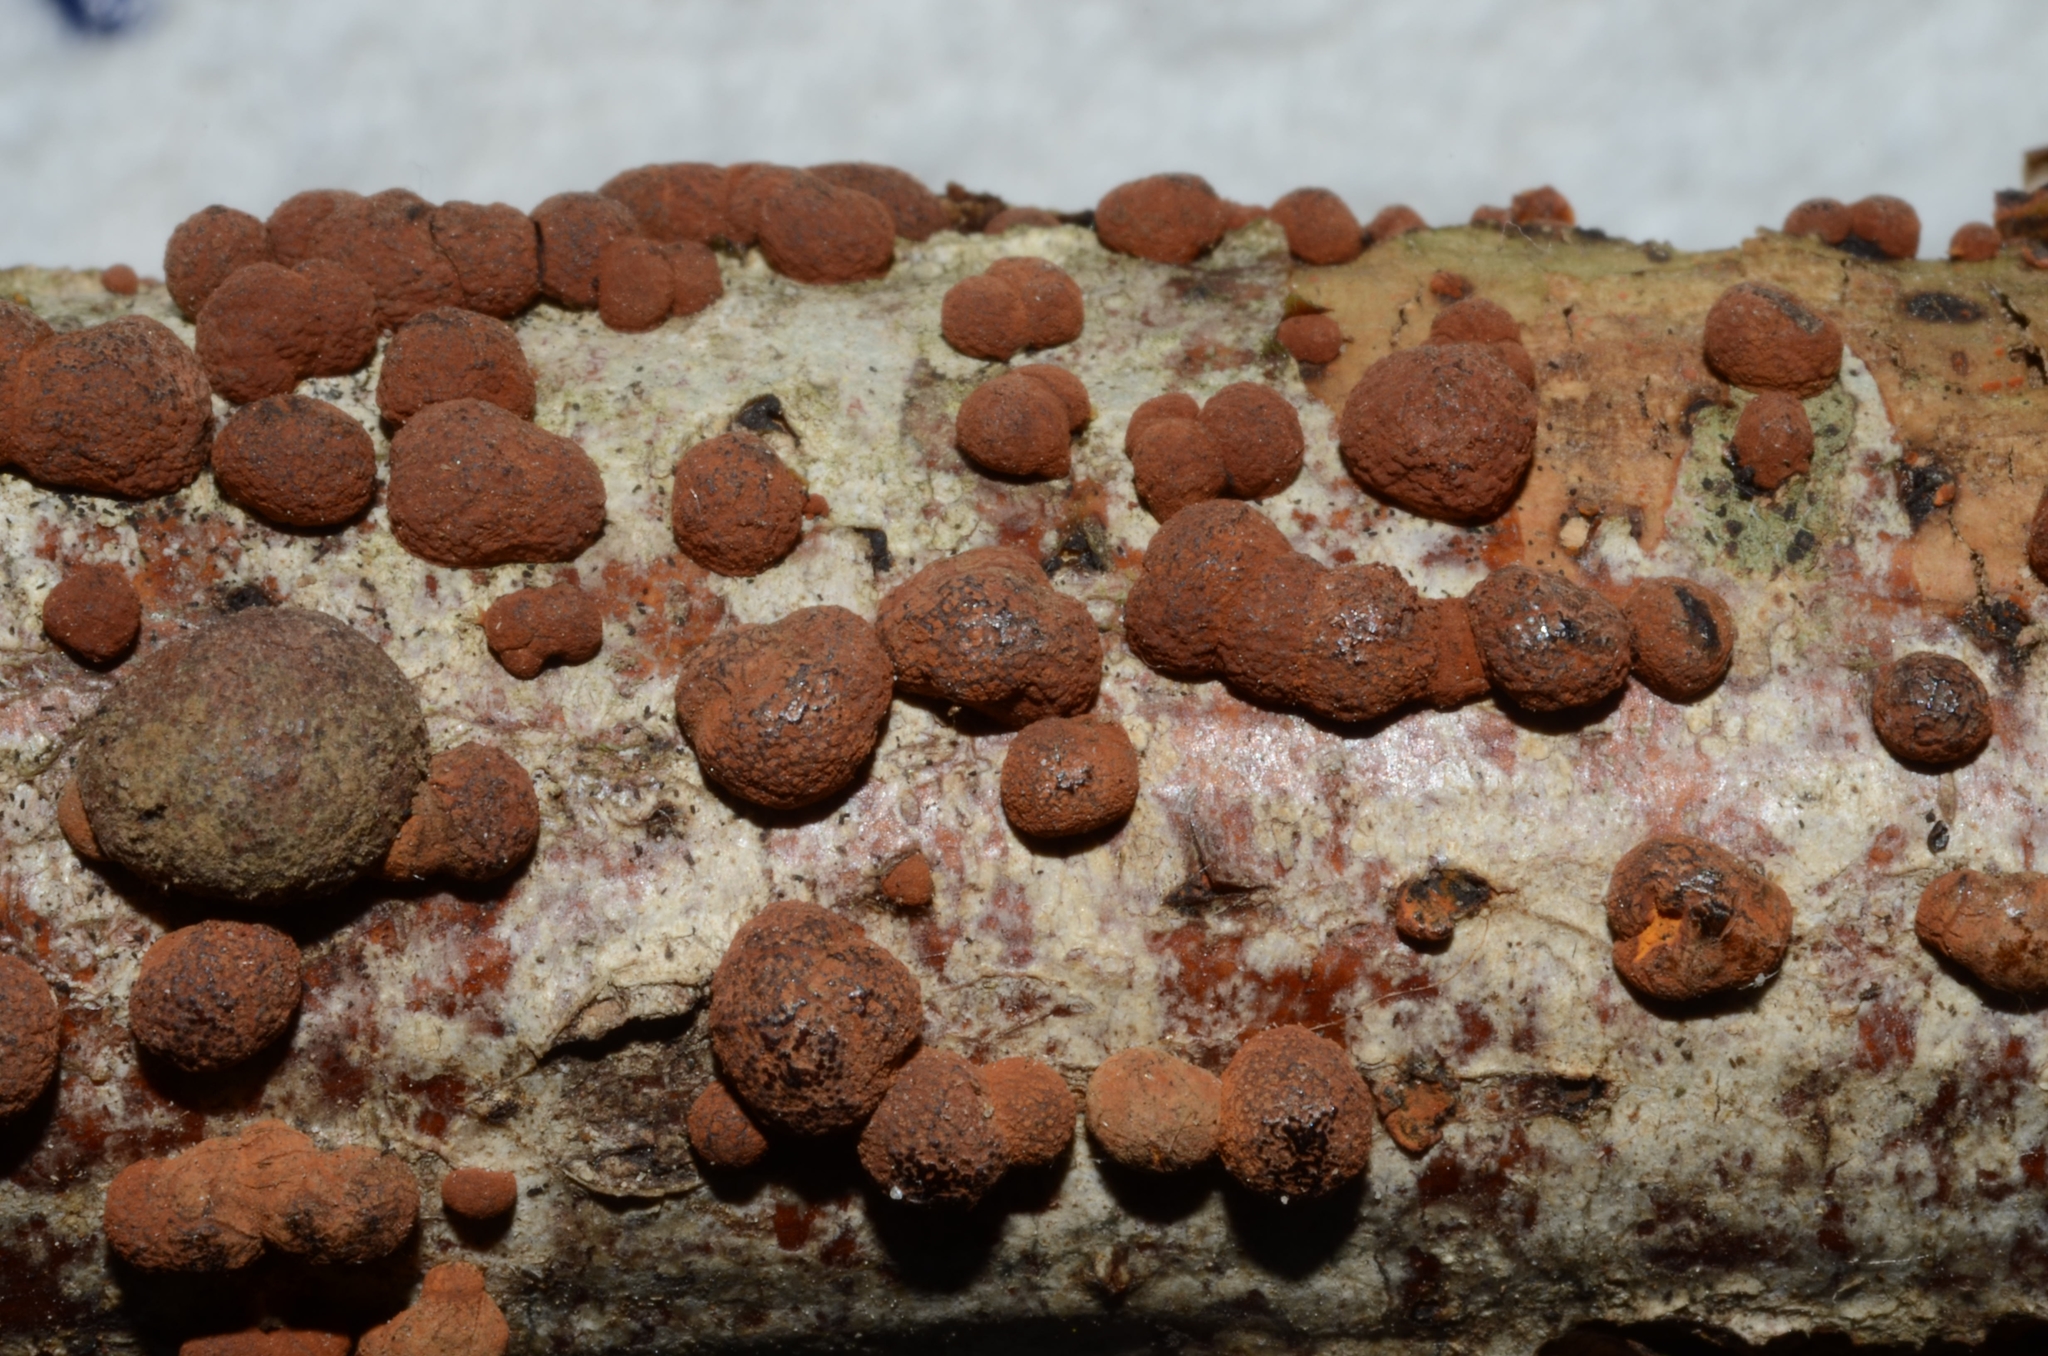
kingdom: Fungi
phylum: Ascomycota
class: Sordariomycetes
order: Xylariales
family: Hypoxylaceae
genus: Hypoxylon
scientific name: Hypoxylon howeanum
